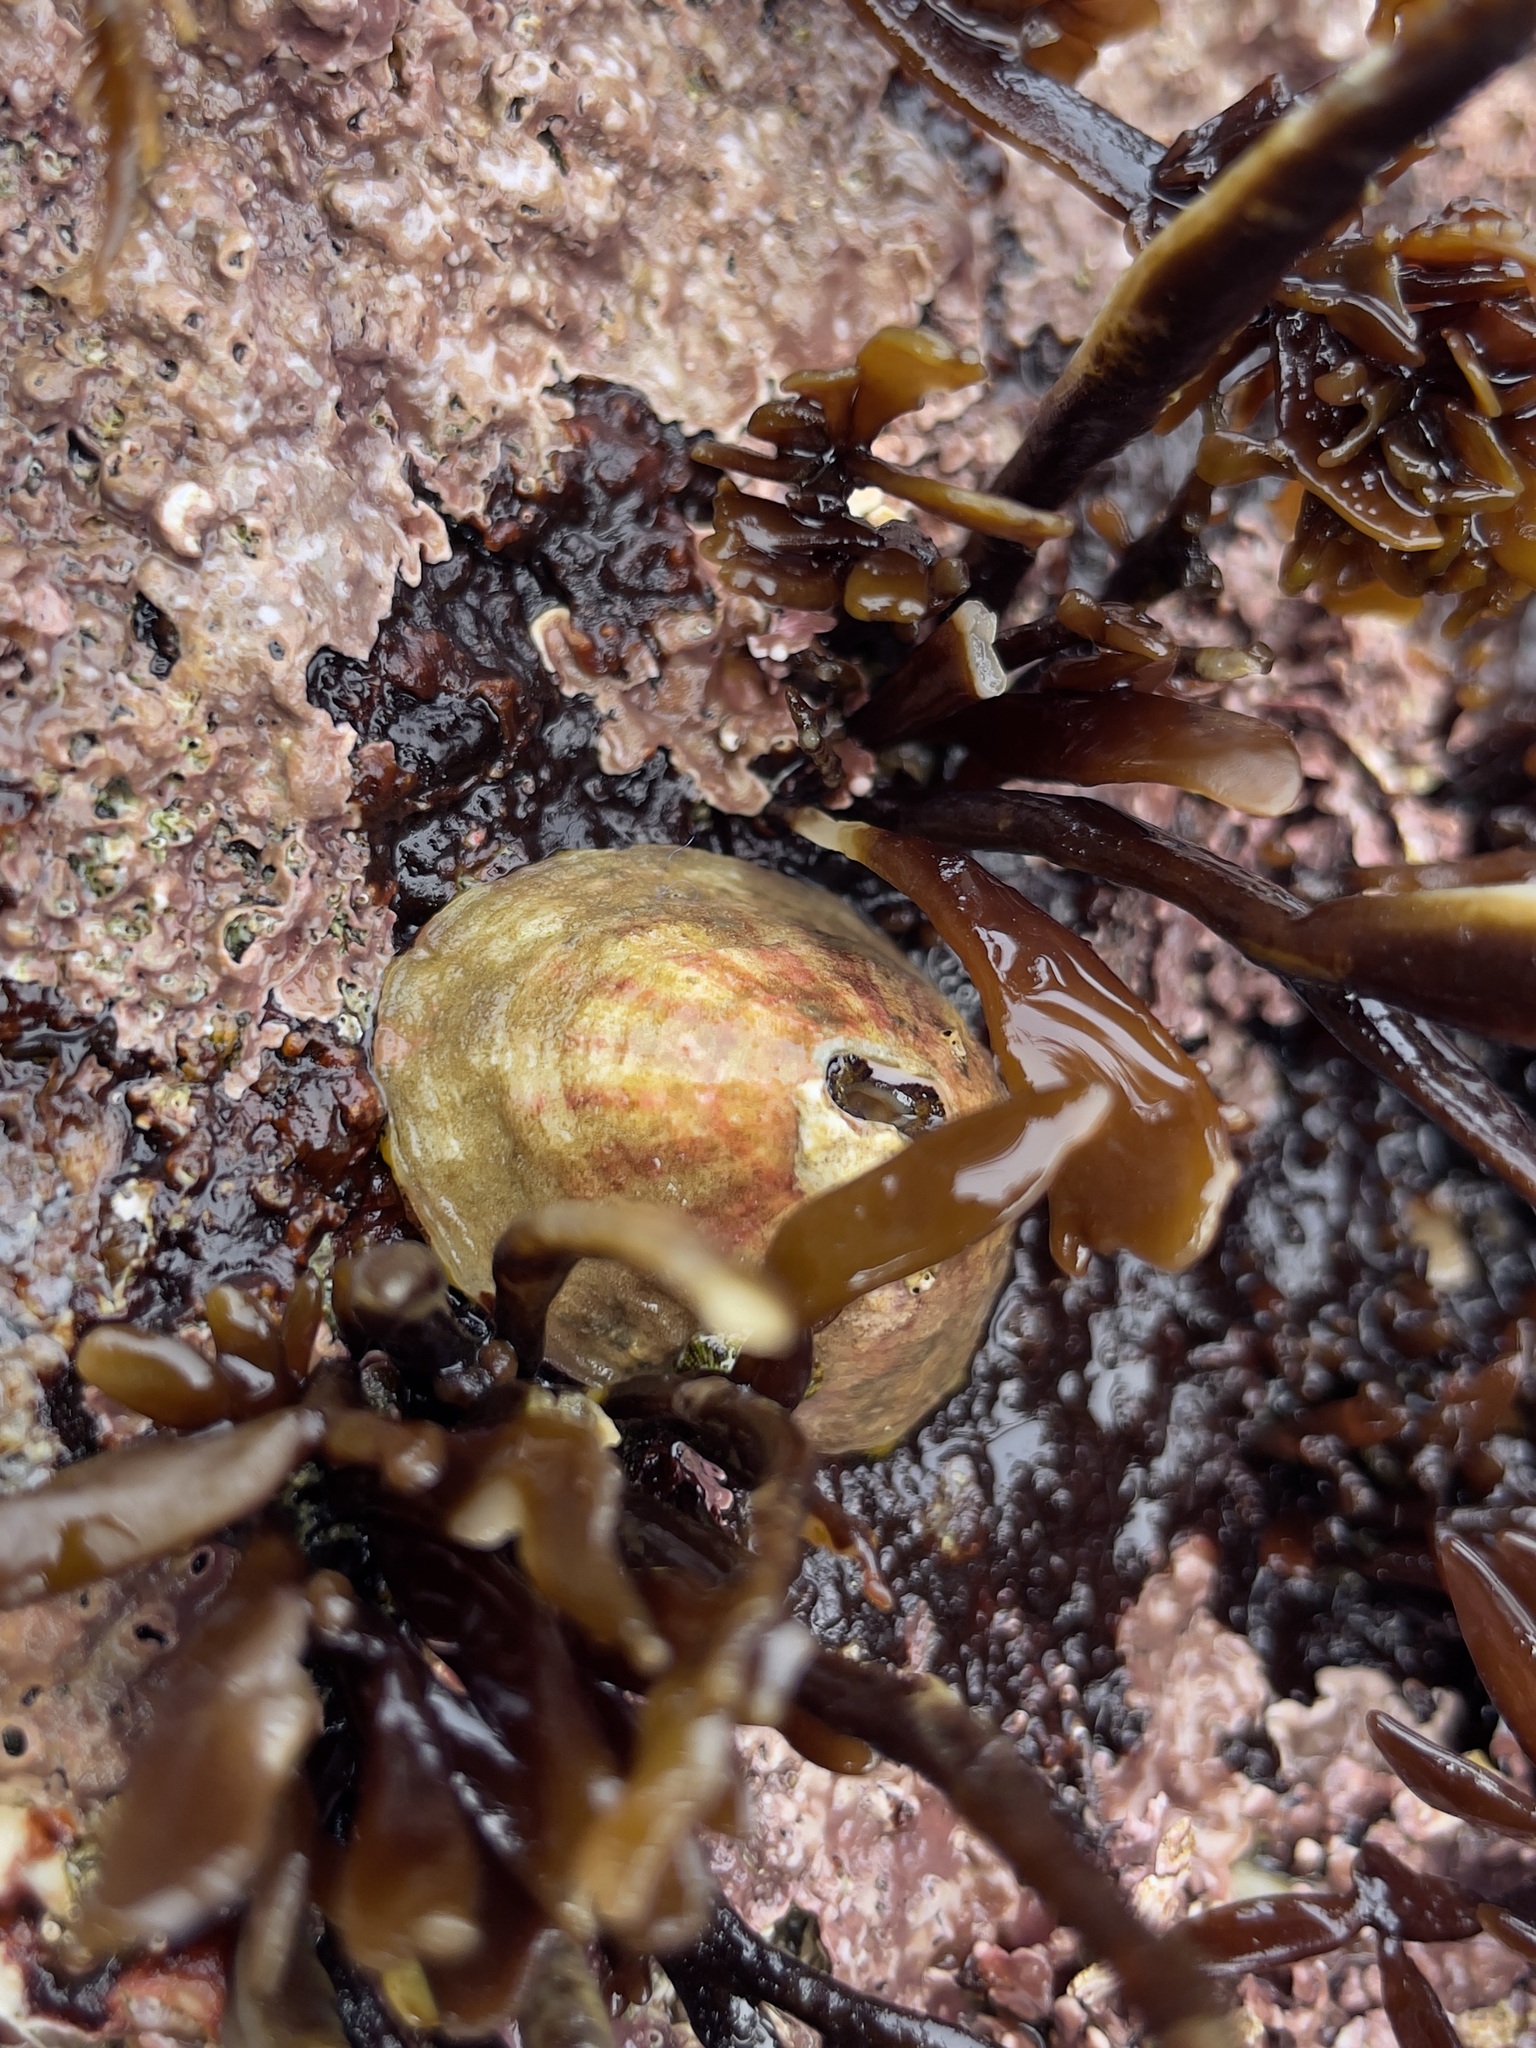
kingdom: Animalia
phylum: Mollusca
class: Gastropoda
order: Lepetellida
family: Fissurellidae
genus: Fissurella
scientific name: Fissurella volcano
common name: Volcano keyhole limpet
